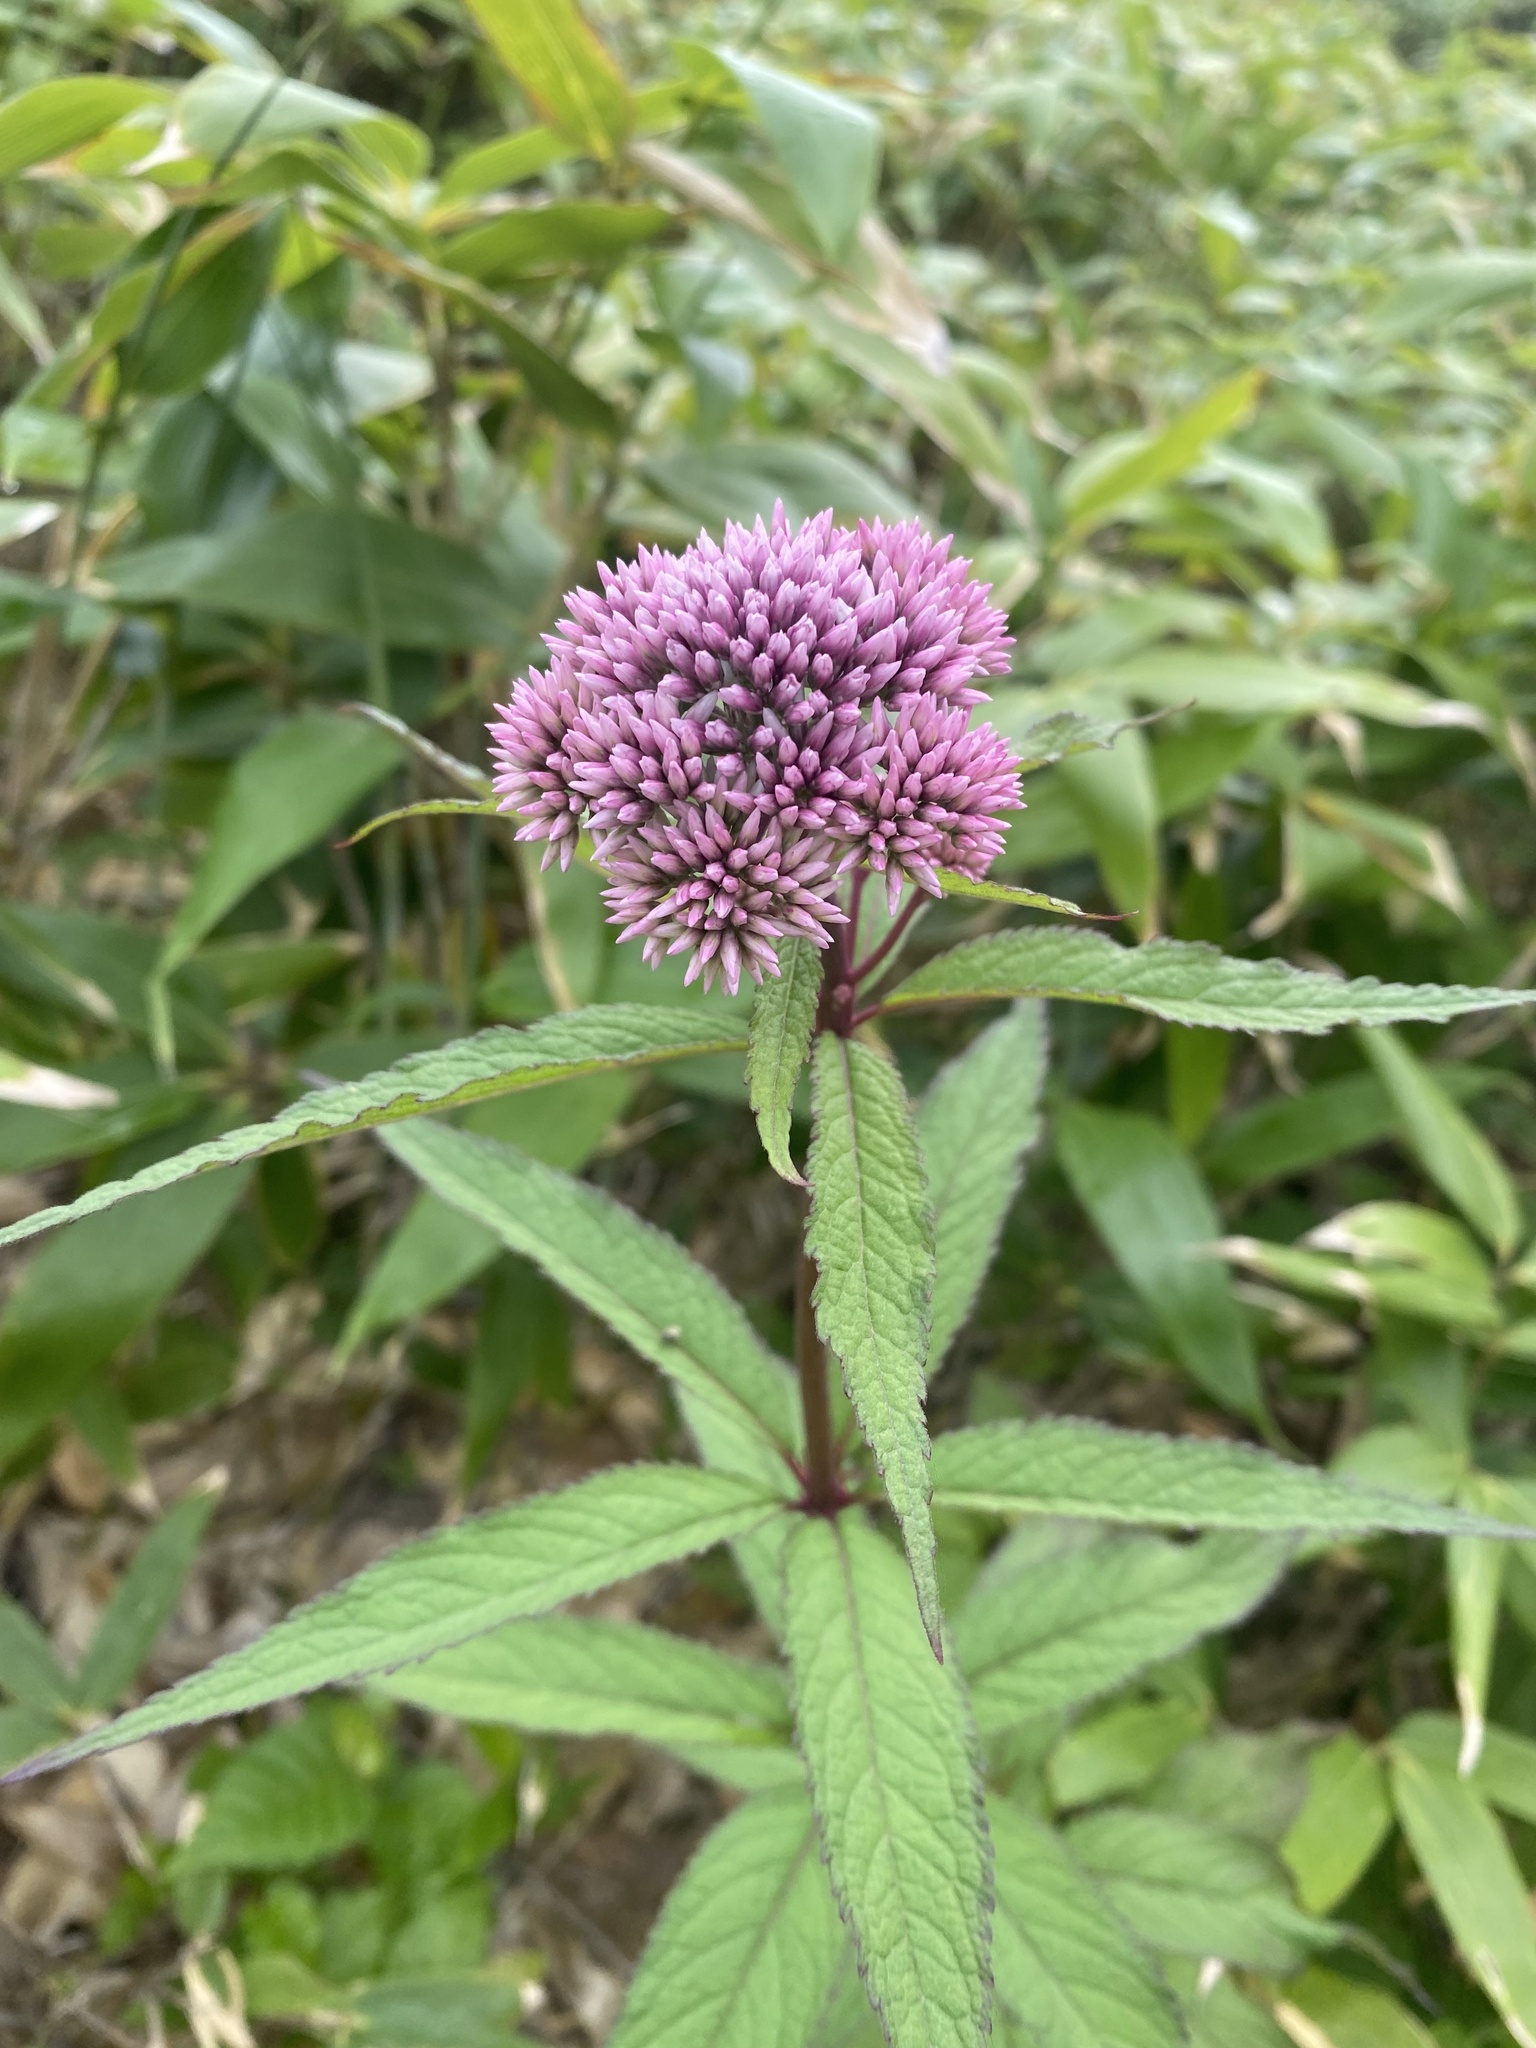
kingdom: Plantae
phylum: Tracheophyta
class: Magnoliopsida
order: Asterales
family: Asteraceae
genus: Eupatorium
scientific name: Eupatorium glehnii
